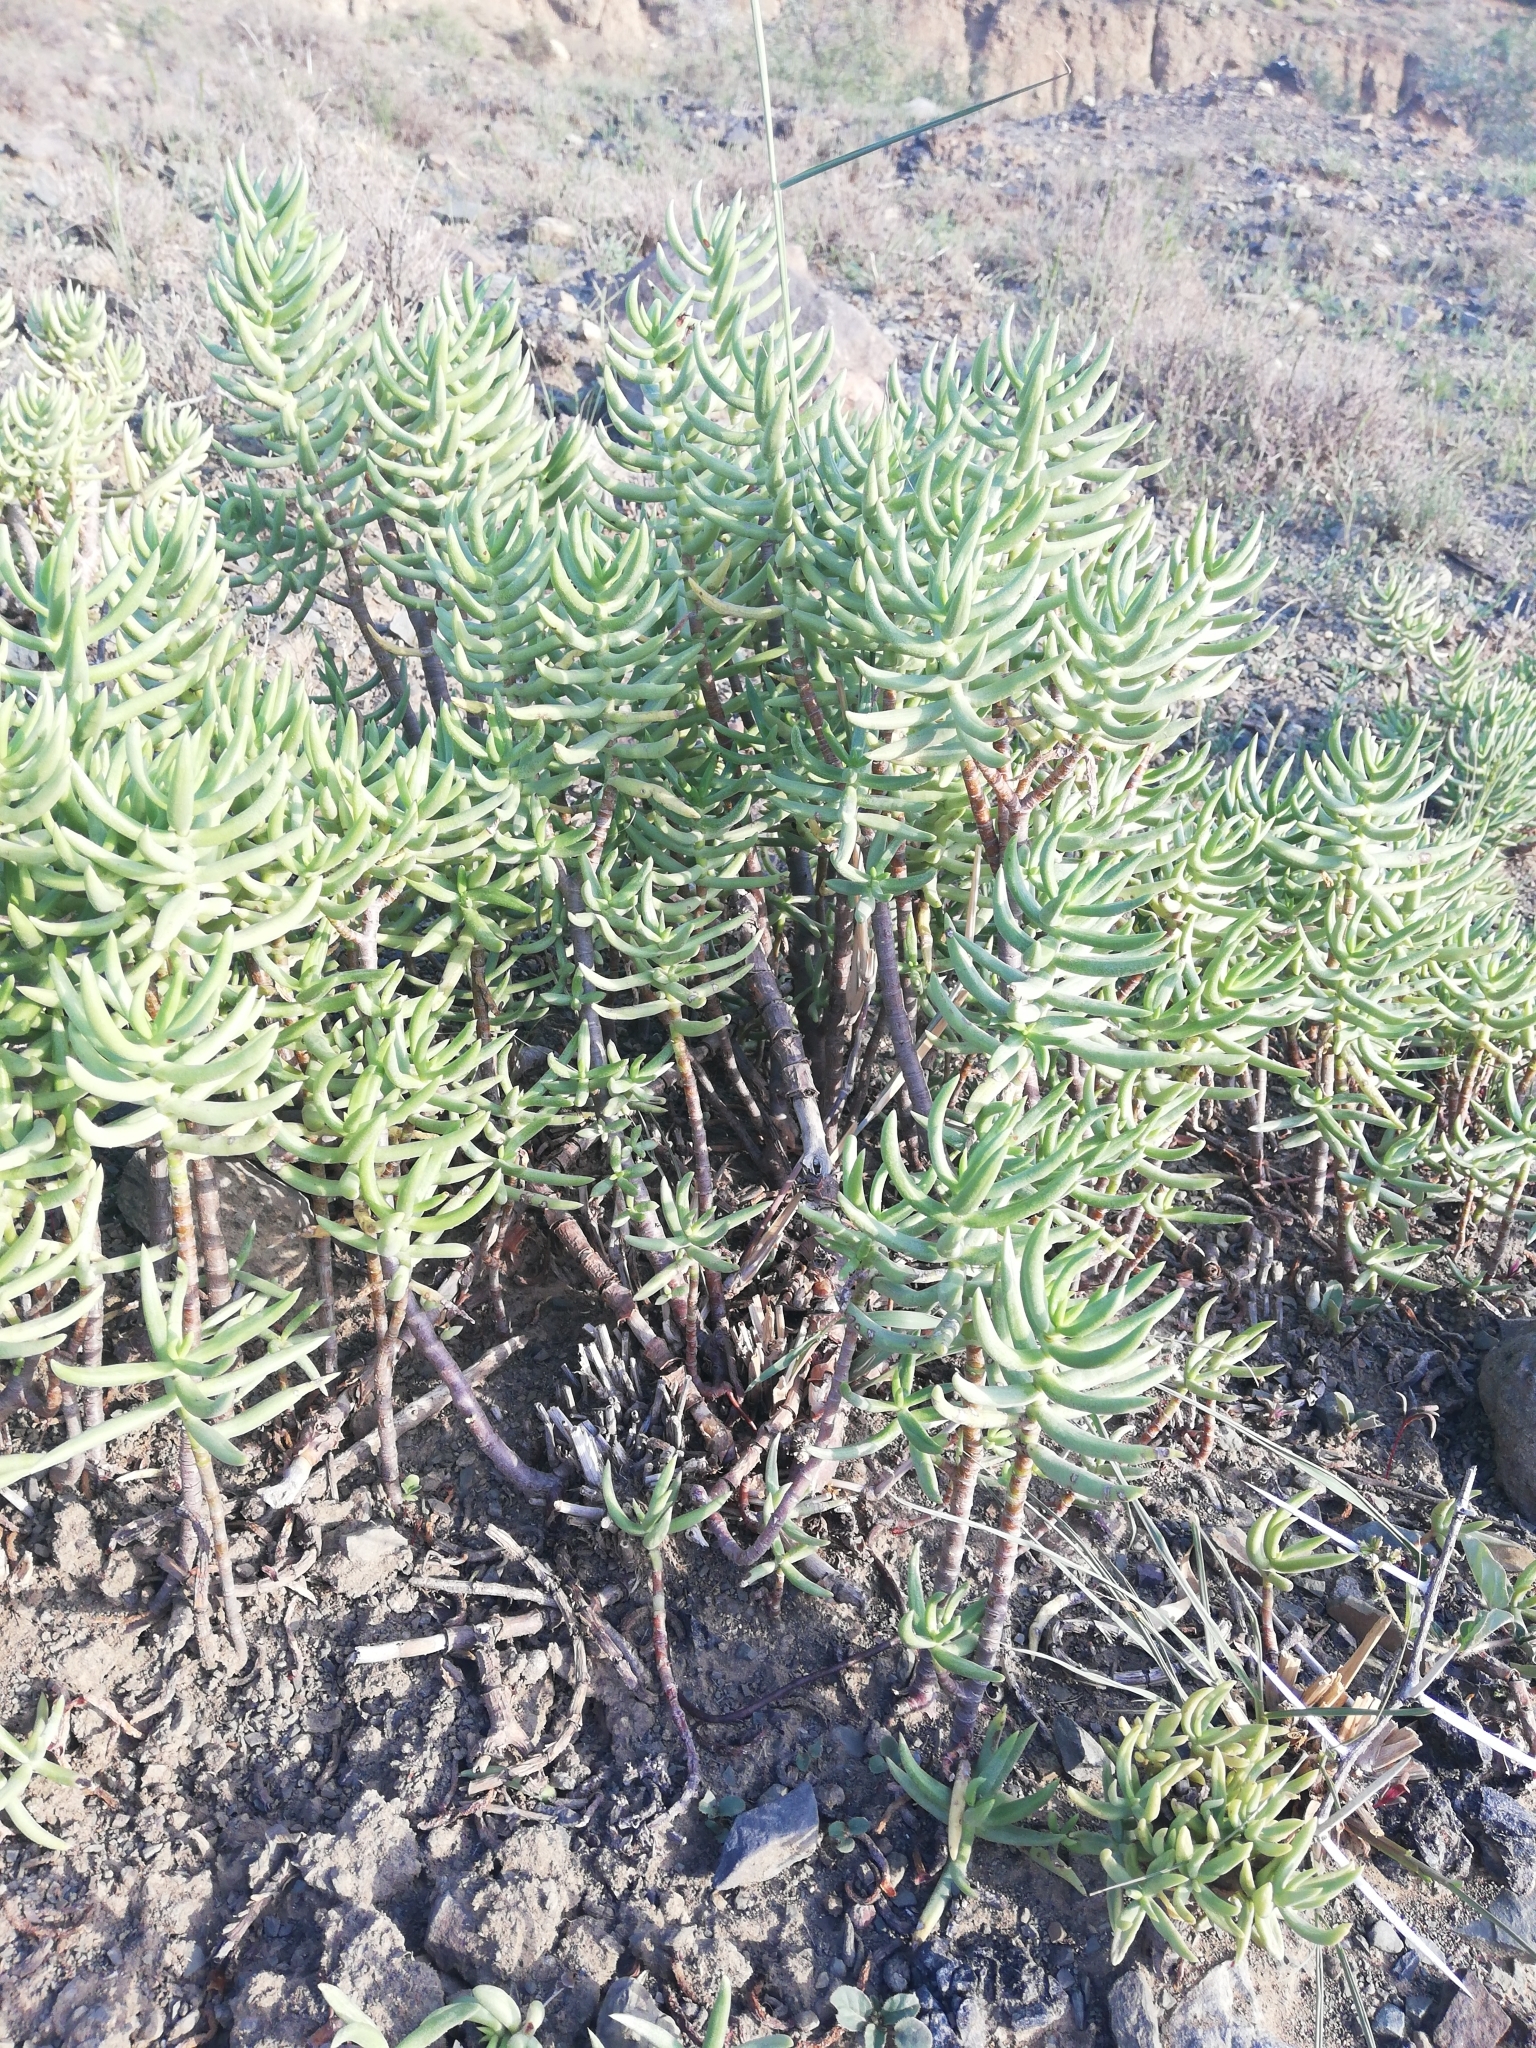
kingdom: Plantae
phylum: Tracheophyta
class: Magnoliopsida
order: Saxifragales
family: Crassulaceae
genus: Crassula
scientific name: Crassula tetragona
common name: Pygmyweed
